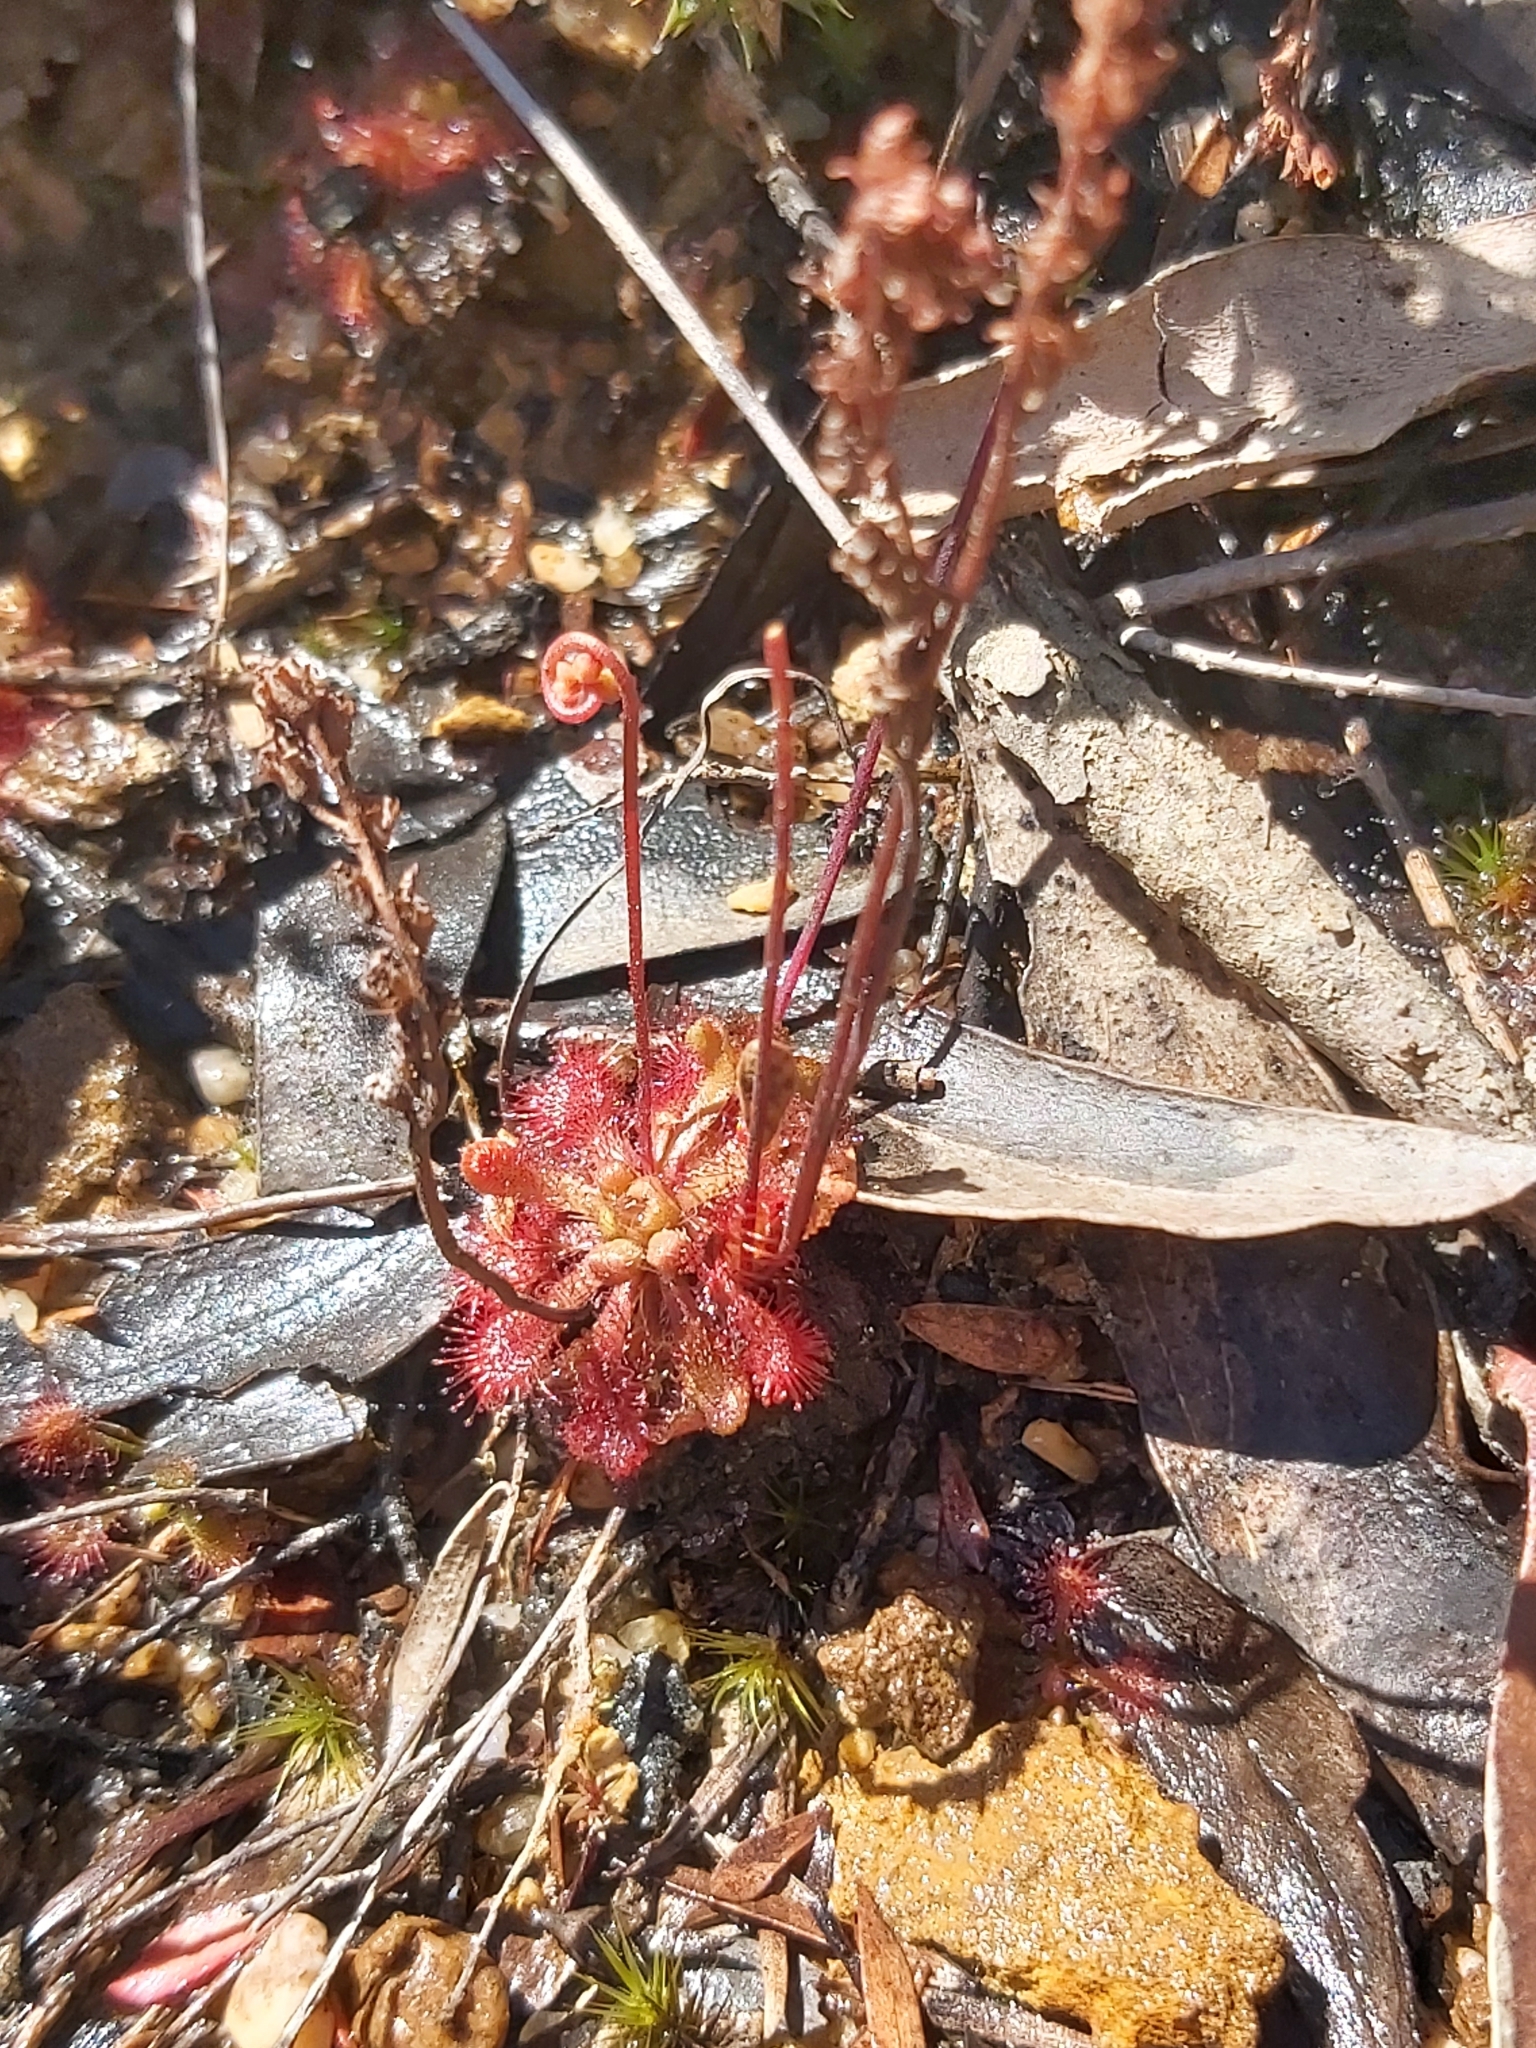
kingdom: Plantae
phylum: Tracheophyta
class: Magnoliopsida
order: Caryophyllales
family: Droseraceae
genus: Drosera
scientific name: Drosera spatulata
